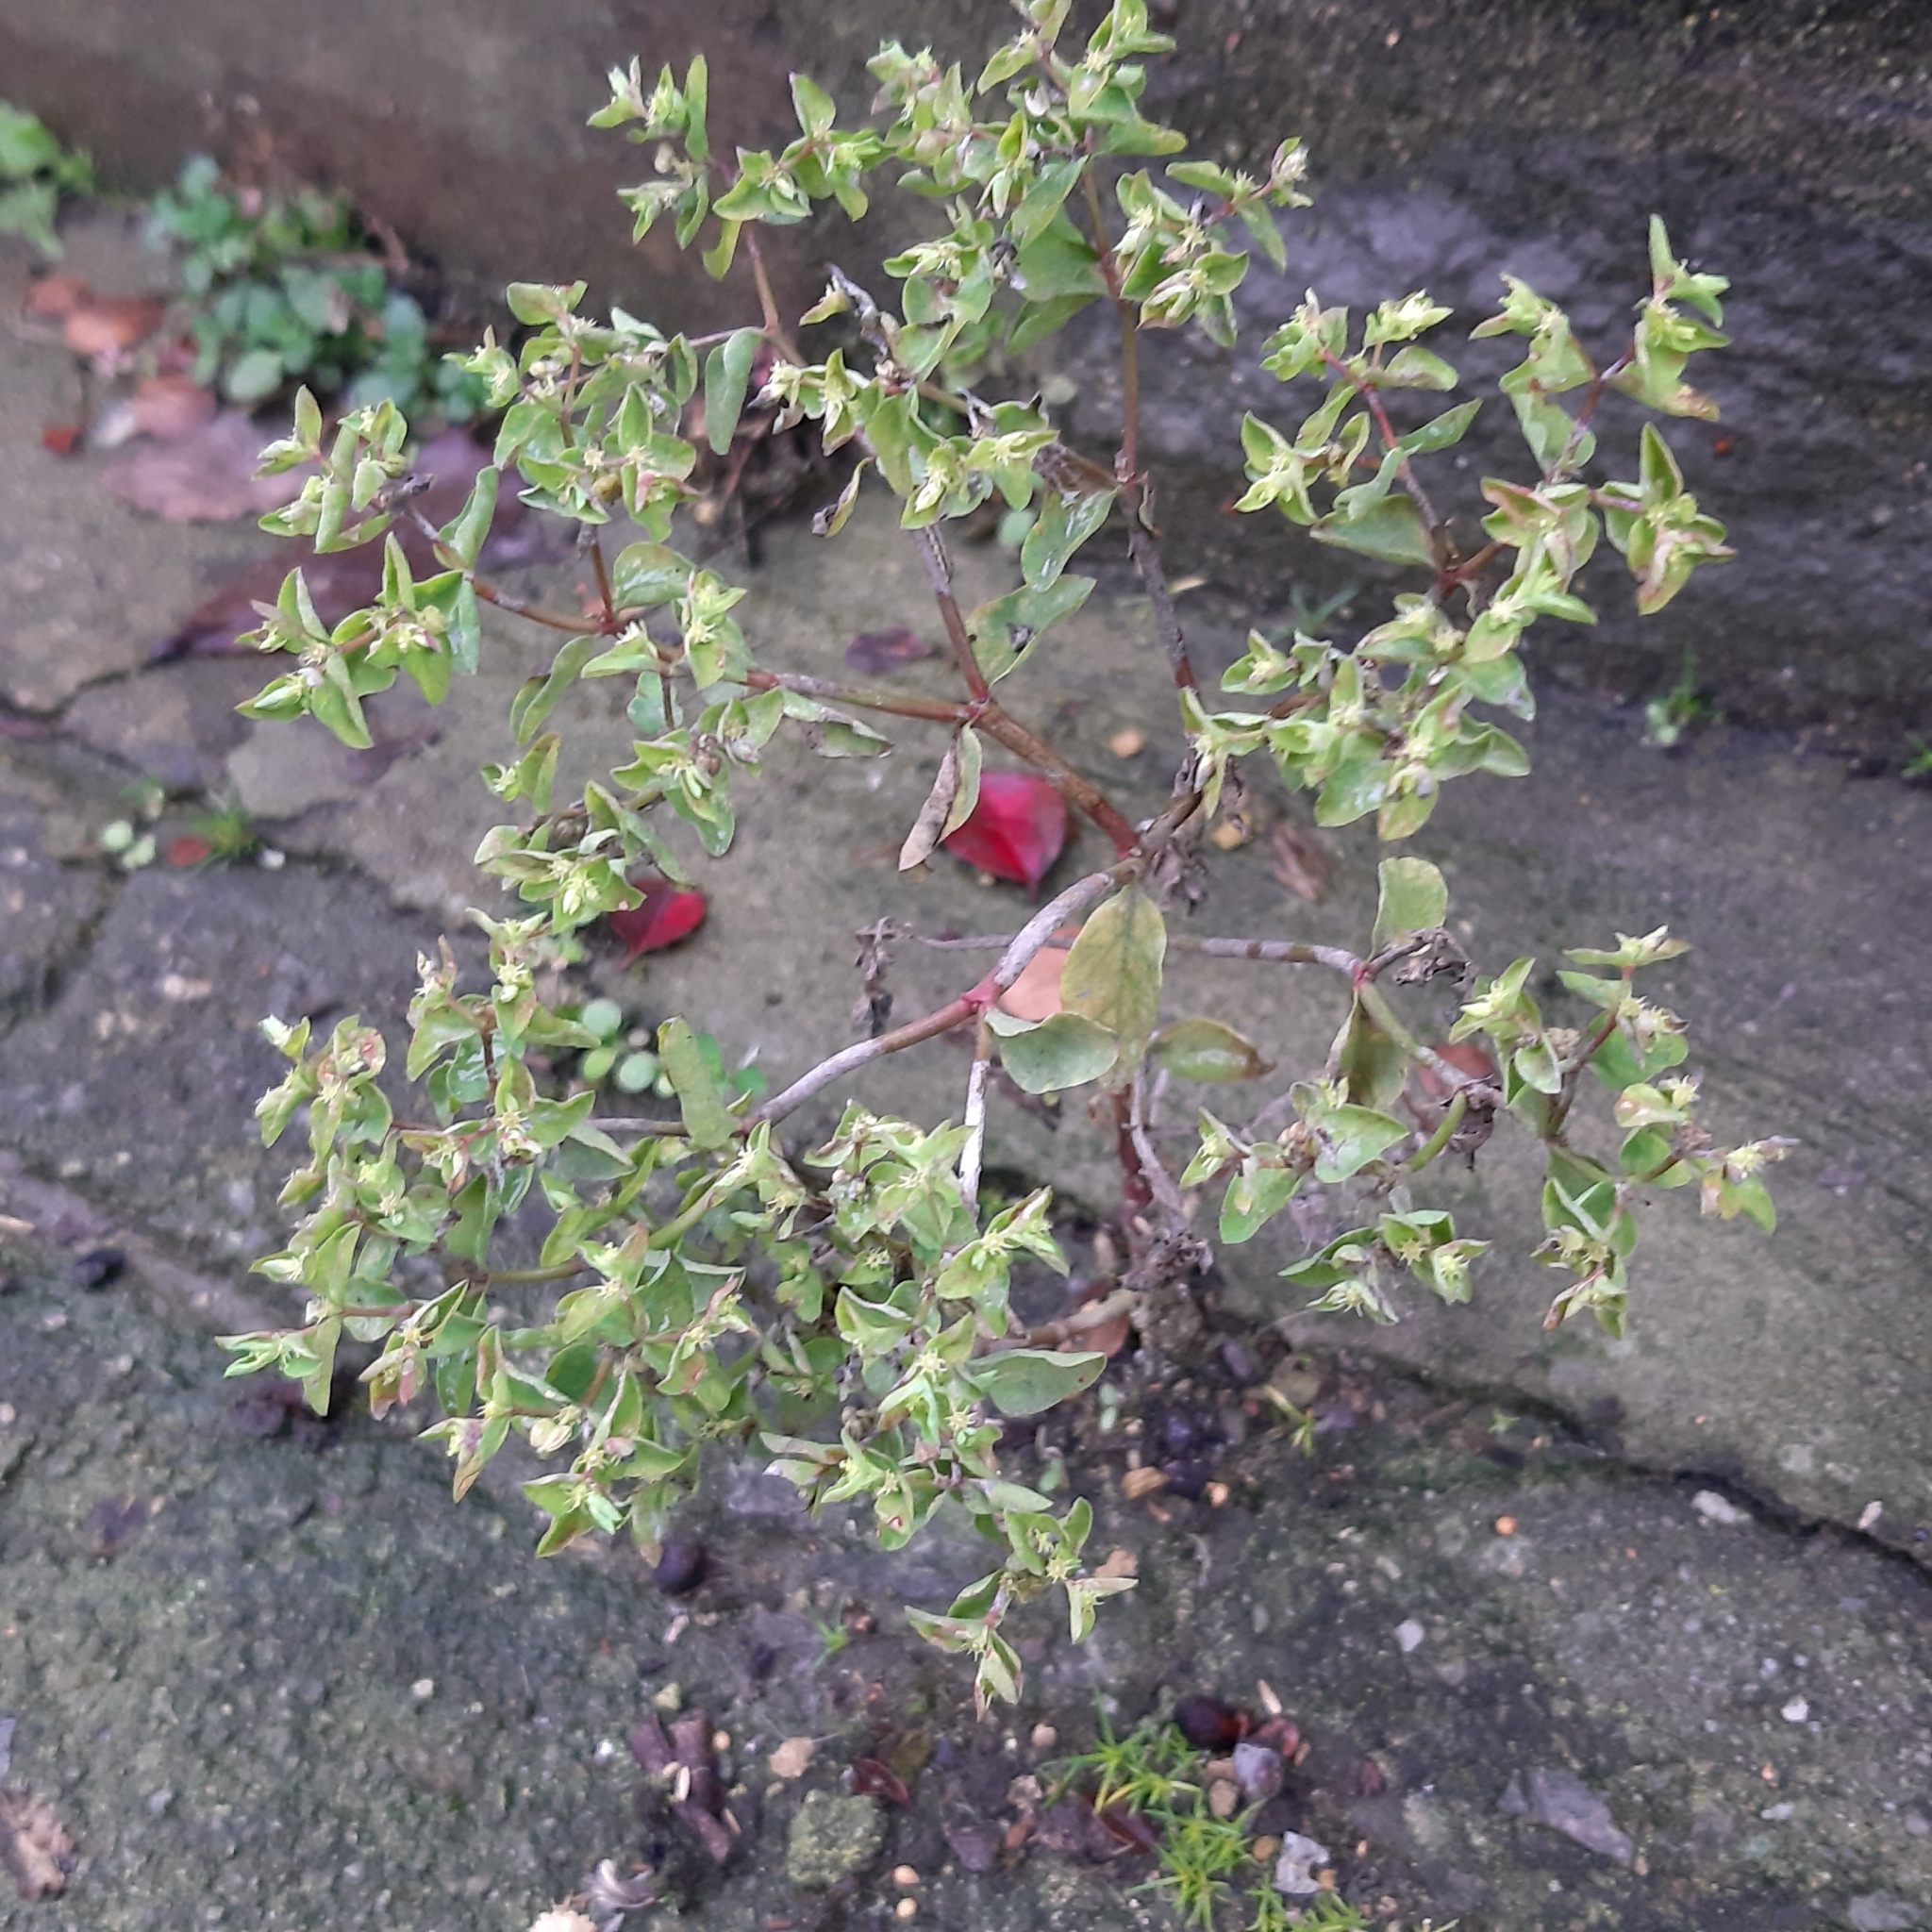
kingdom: Plantae
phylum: Tracheophyta
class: Magnoliopsida
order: Malpighiales
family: Euphorbiaceae
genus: Euphorbia
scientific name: Euphorbia peplus
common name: Petty spurge
